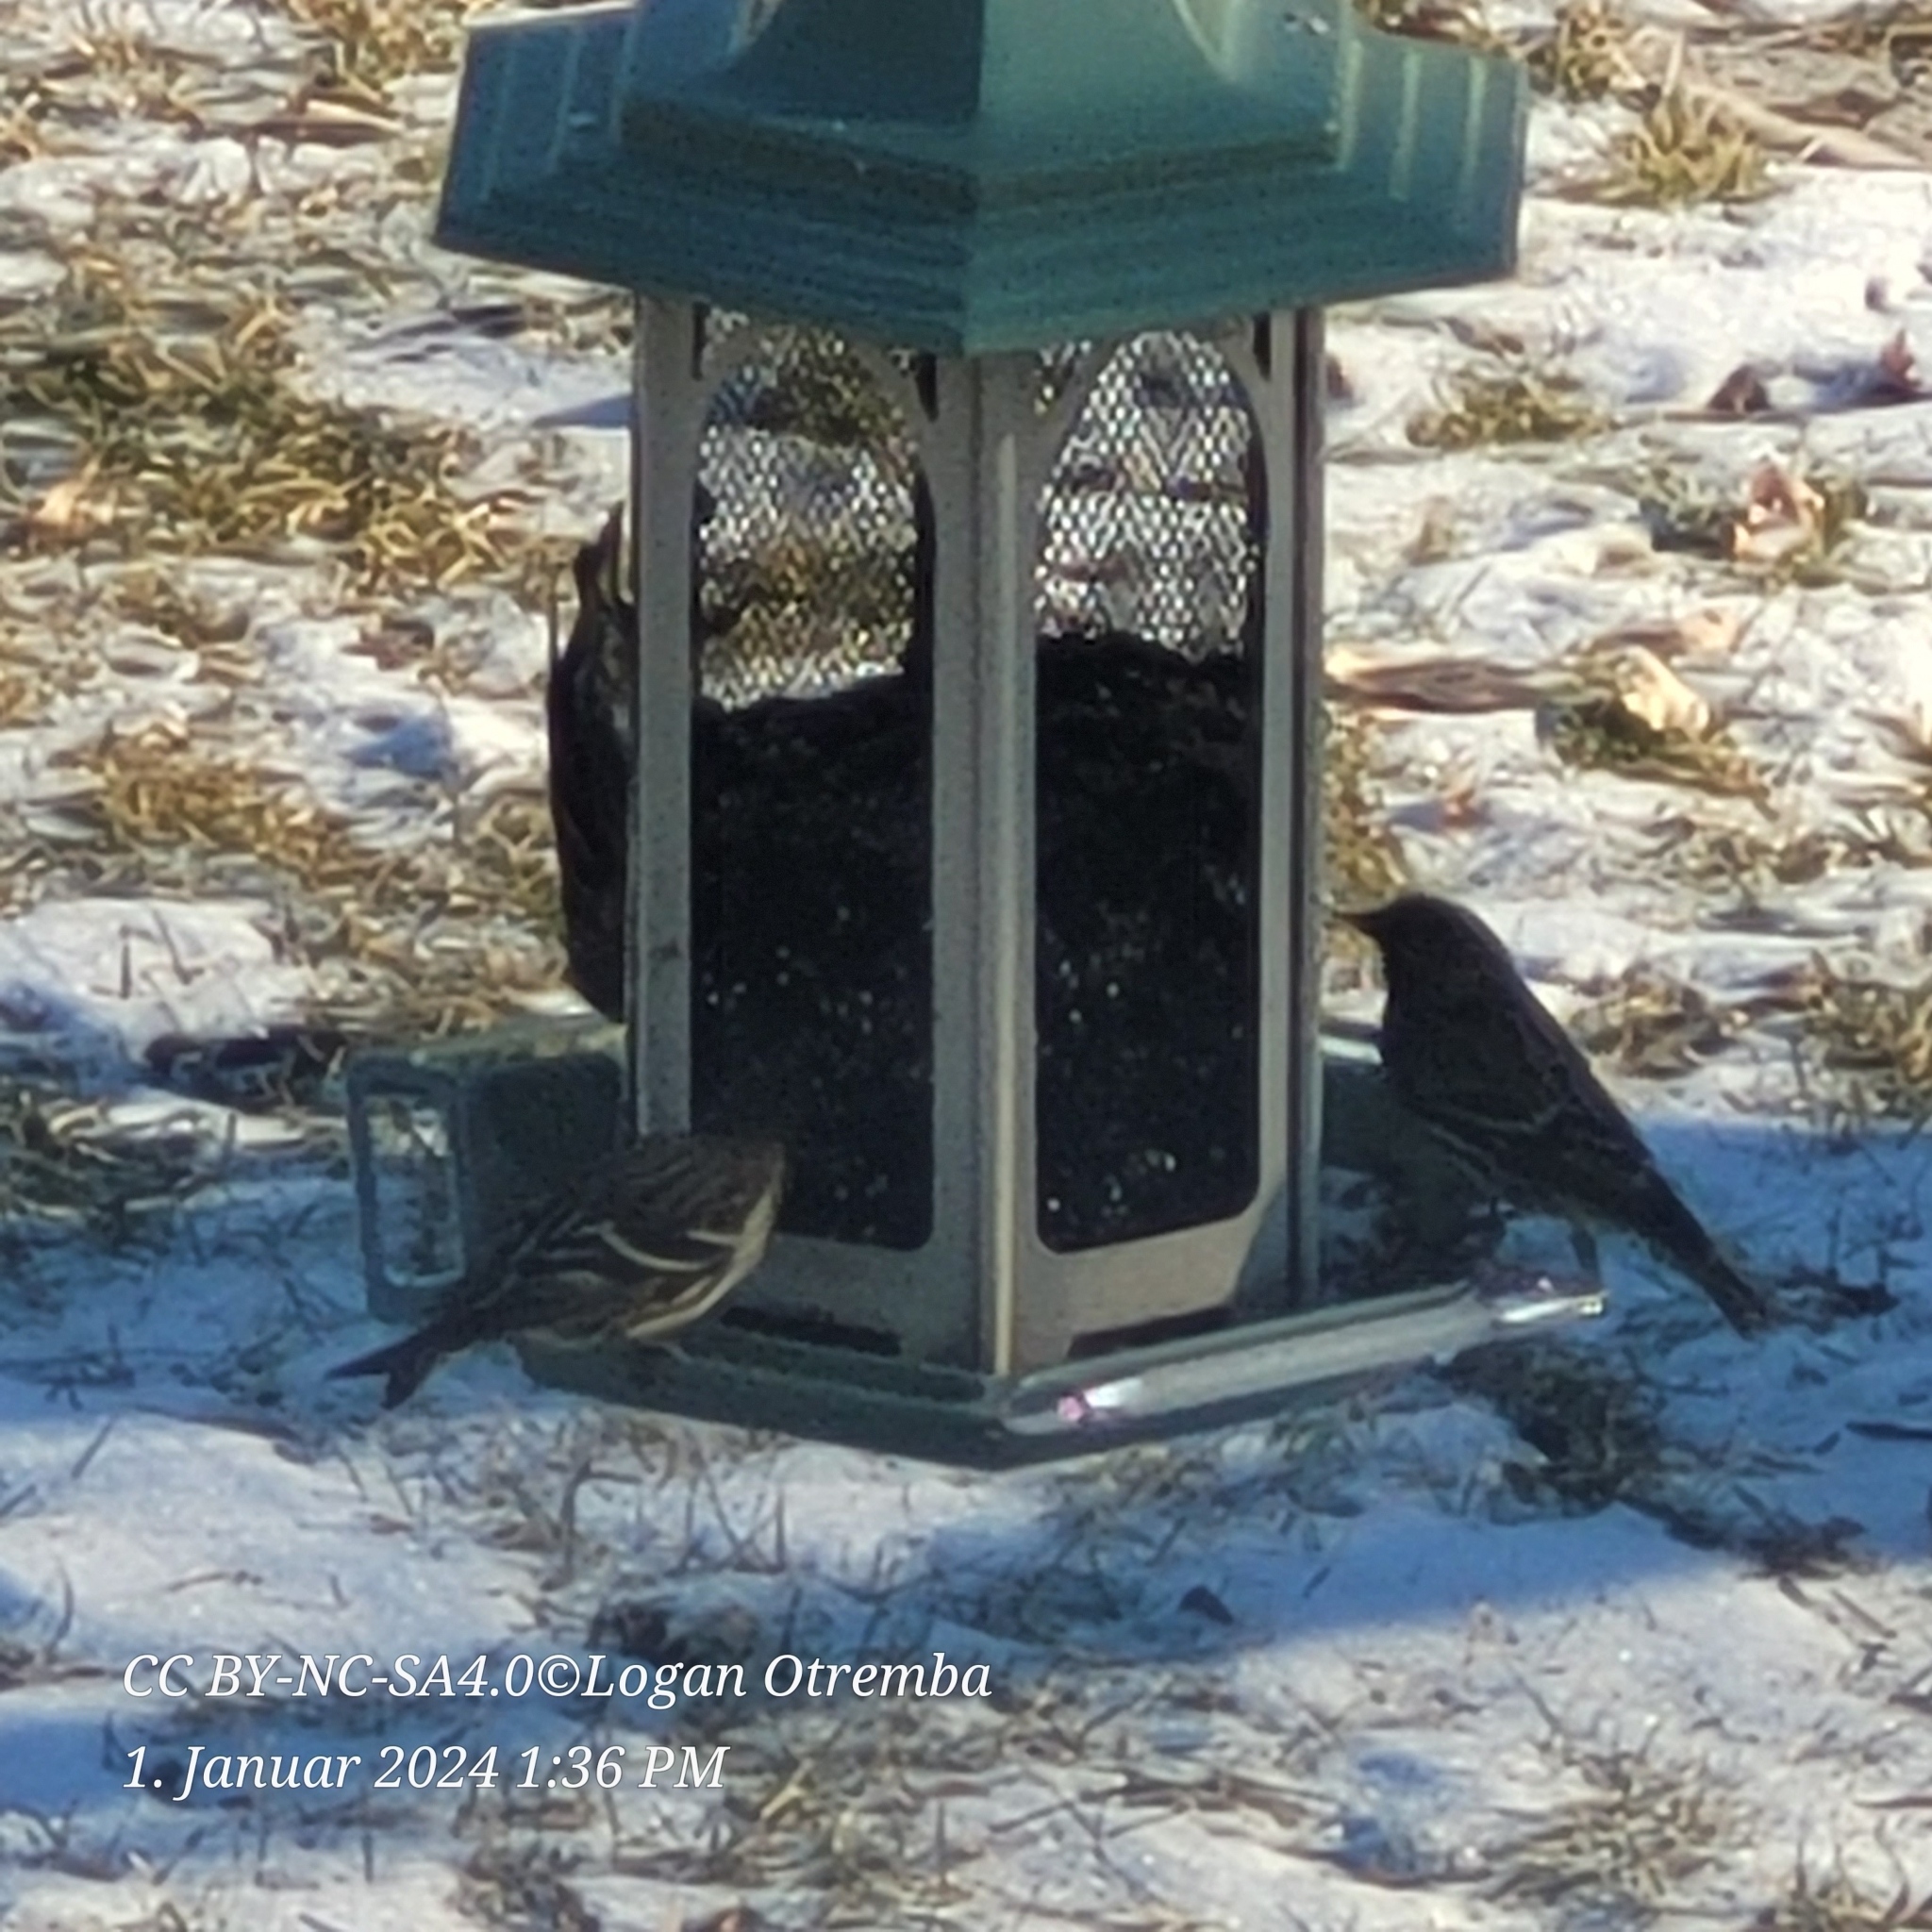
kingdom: Animalia
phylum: Chordata
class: Aves
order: Passeriformes
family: Fringillidae
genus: Spinus
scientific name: Spinus pinus
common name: Pine siskin
